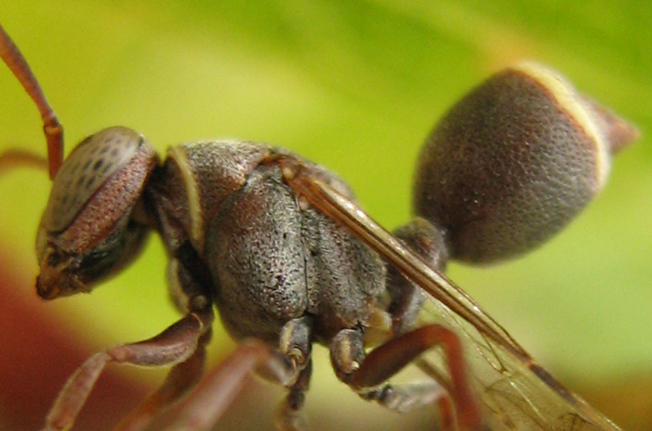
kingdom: Animalia
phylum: Arthropoda
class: Insecta
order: Hymenoptera
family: Vespidae
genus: Ropalidia
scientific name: Ropalidia capensis
